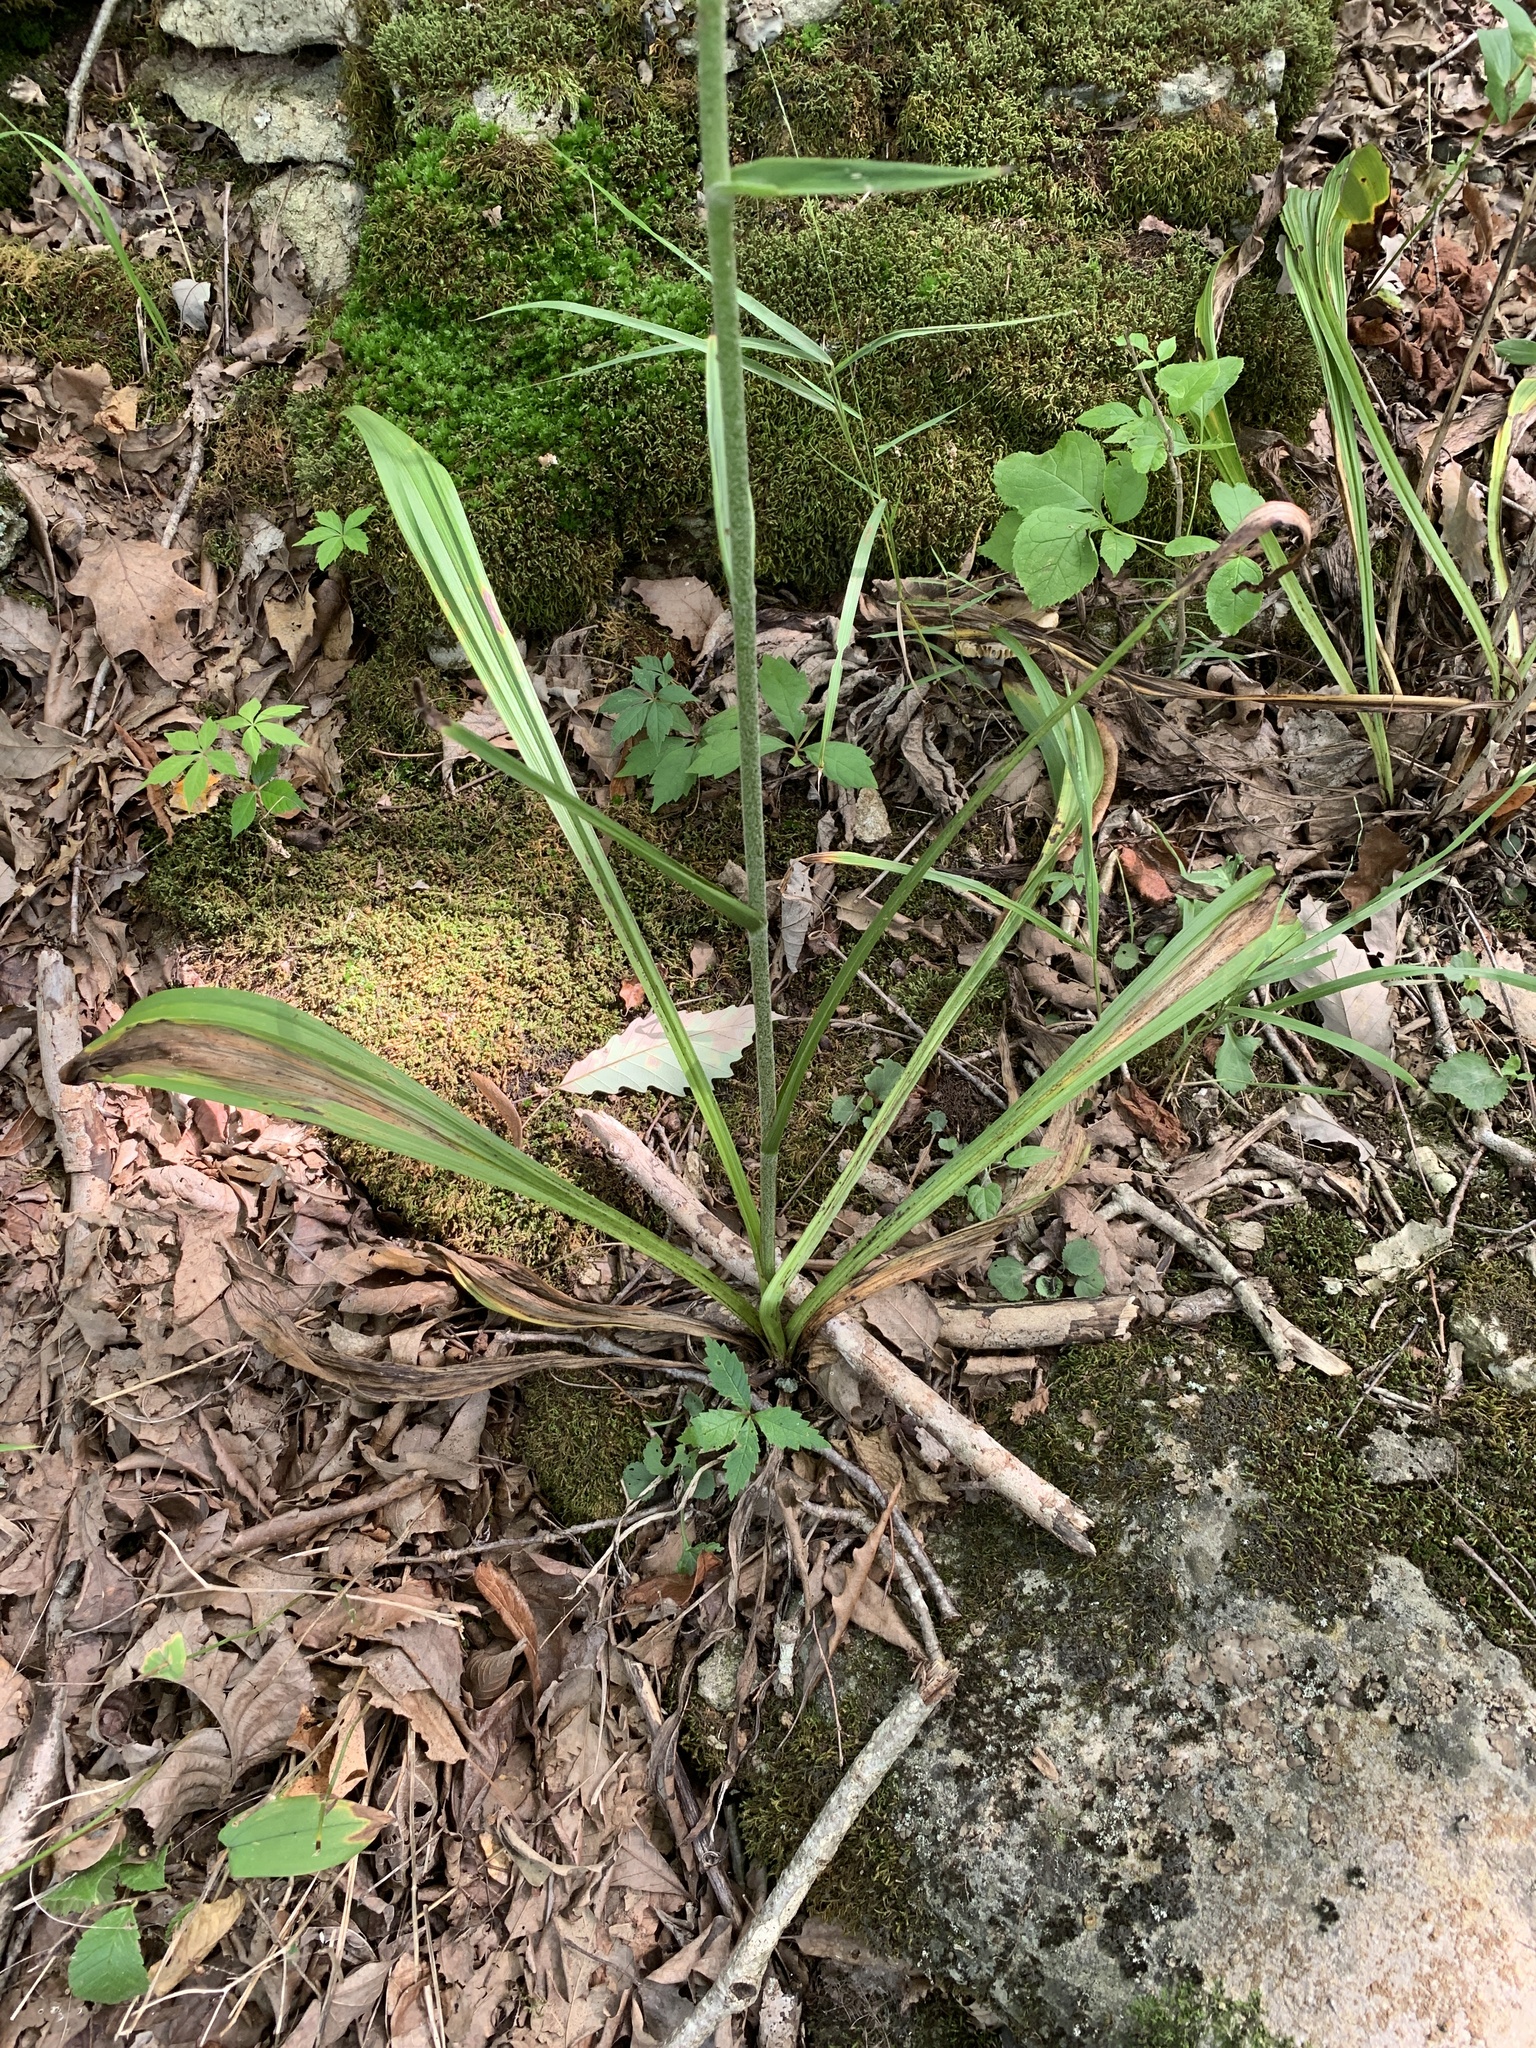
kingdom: Plantae
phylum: Tracheophyta
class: Liliopsida
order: Liliales
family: Melanthiaceae
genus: Veratrum
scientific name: Veratrum woodii
